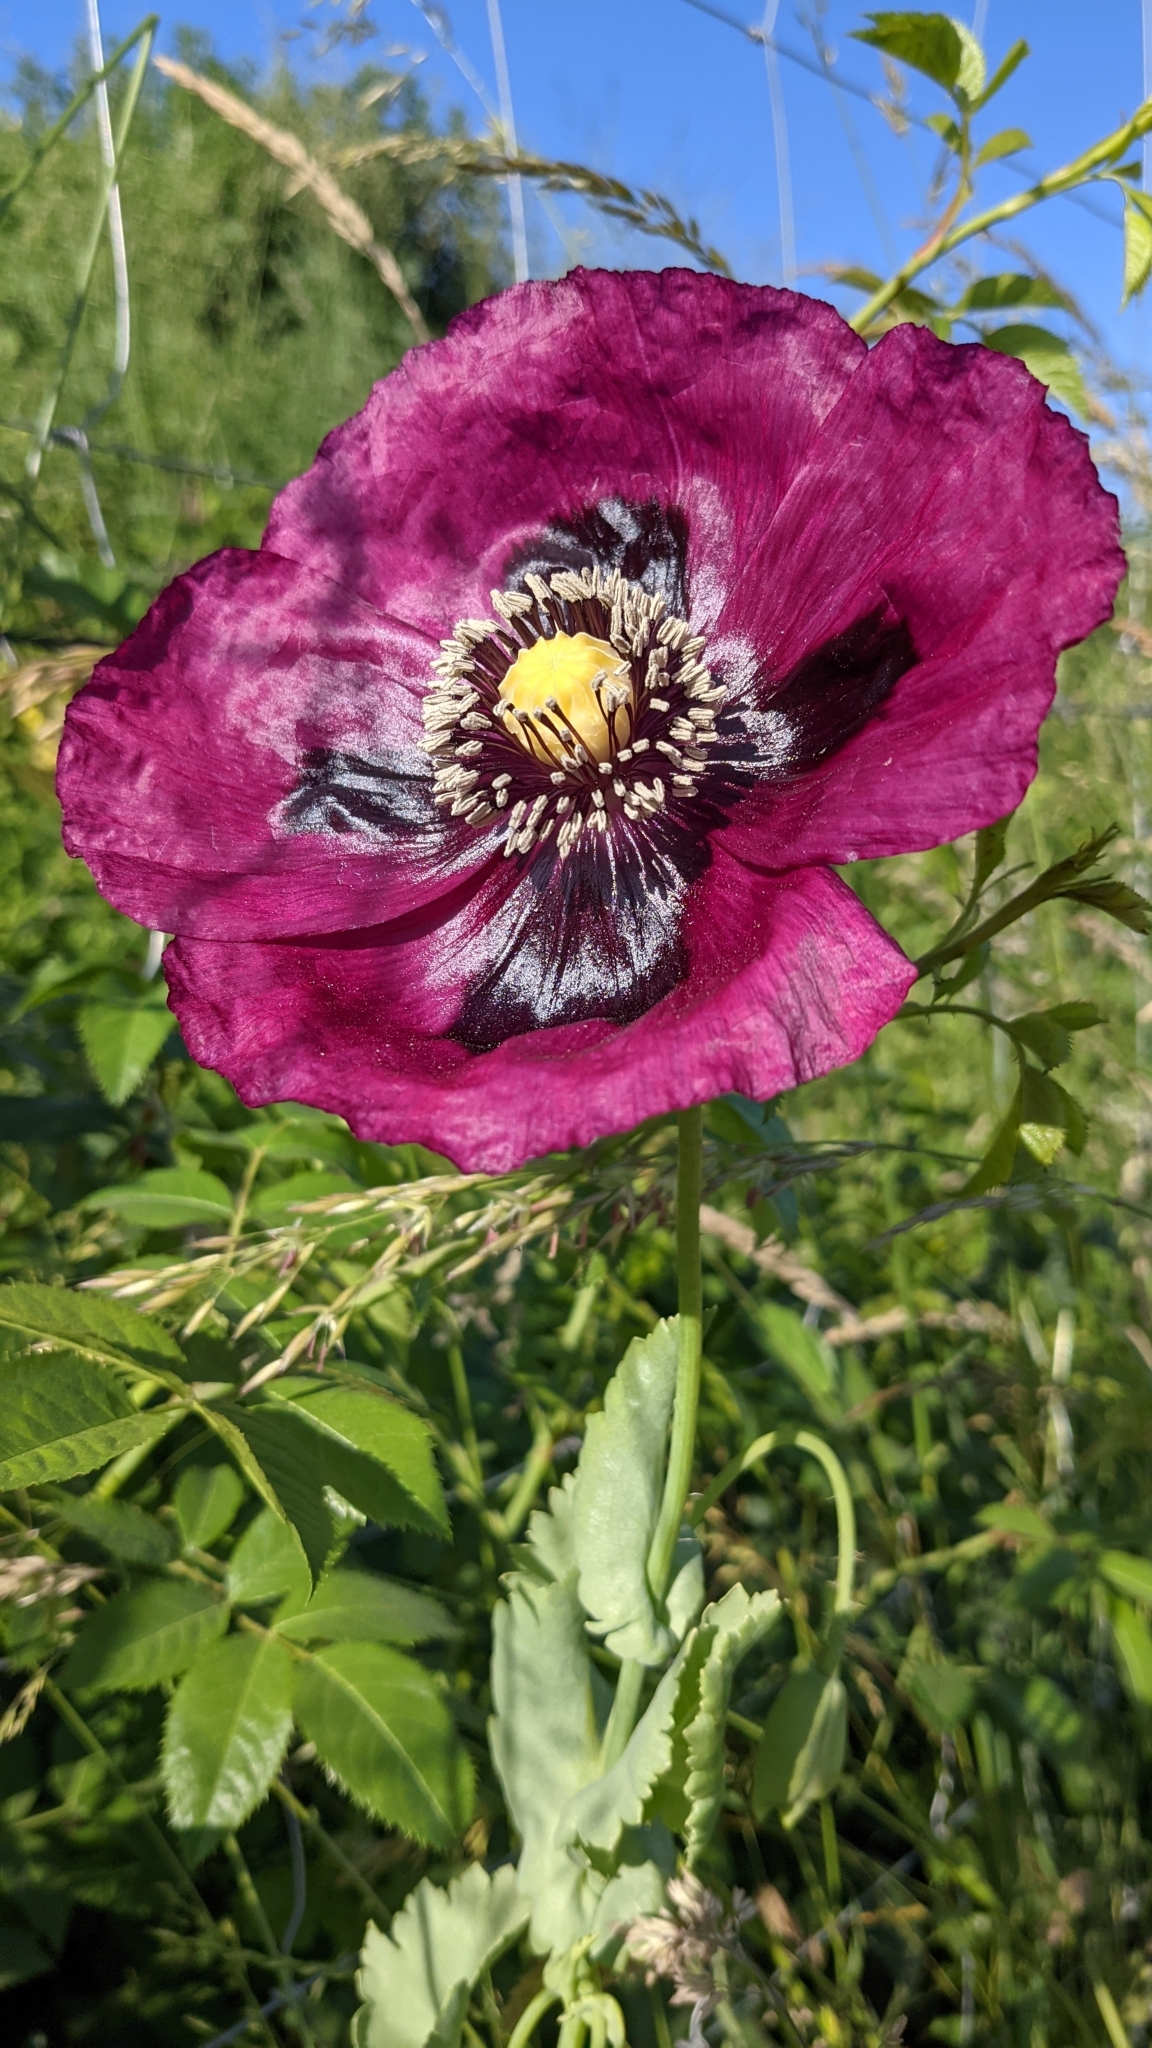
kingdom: Plantae
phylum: Tracheophyta
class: Magnoliopsida
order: Ranunculales
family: Papaveraceae
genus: Papaver
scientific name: Papaver somniferum
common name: Opium poppy
